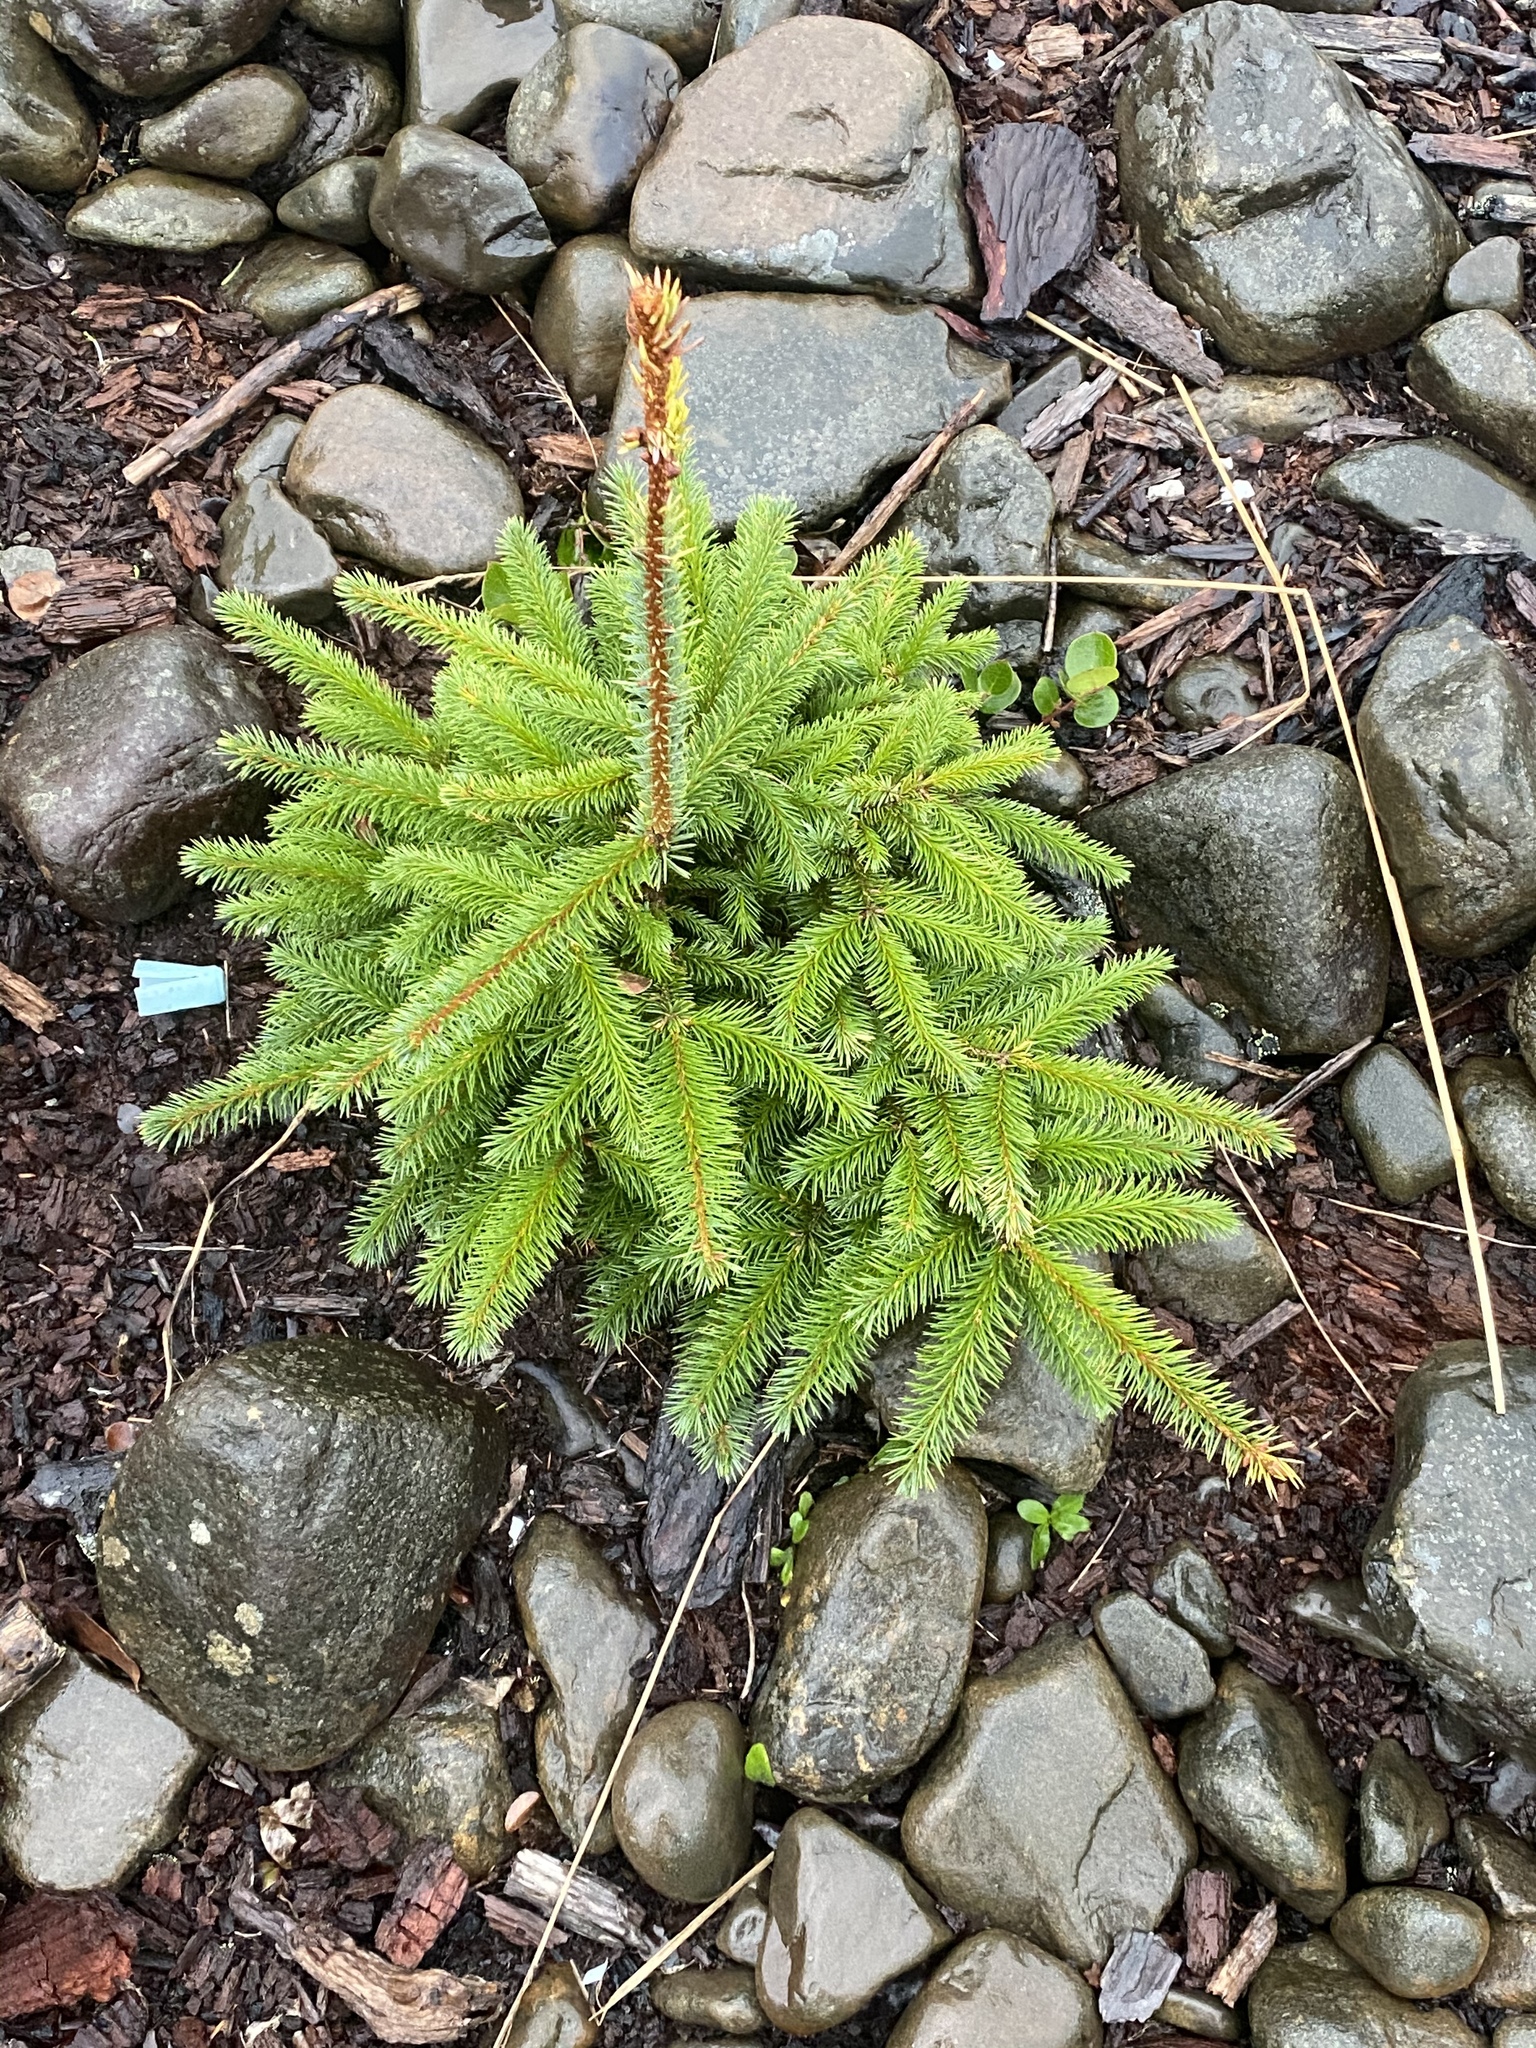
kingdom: Plantae
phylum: Tracheophyta
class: Pinopsida
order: Pinales
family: Pinaceae
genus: Picea
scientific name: Picea sitchensis
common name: Sitka spruce
